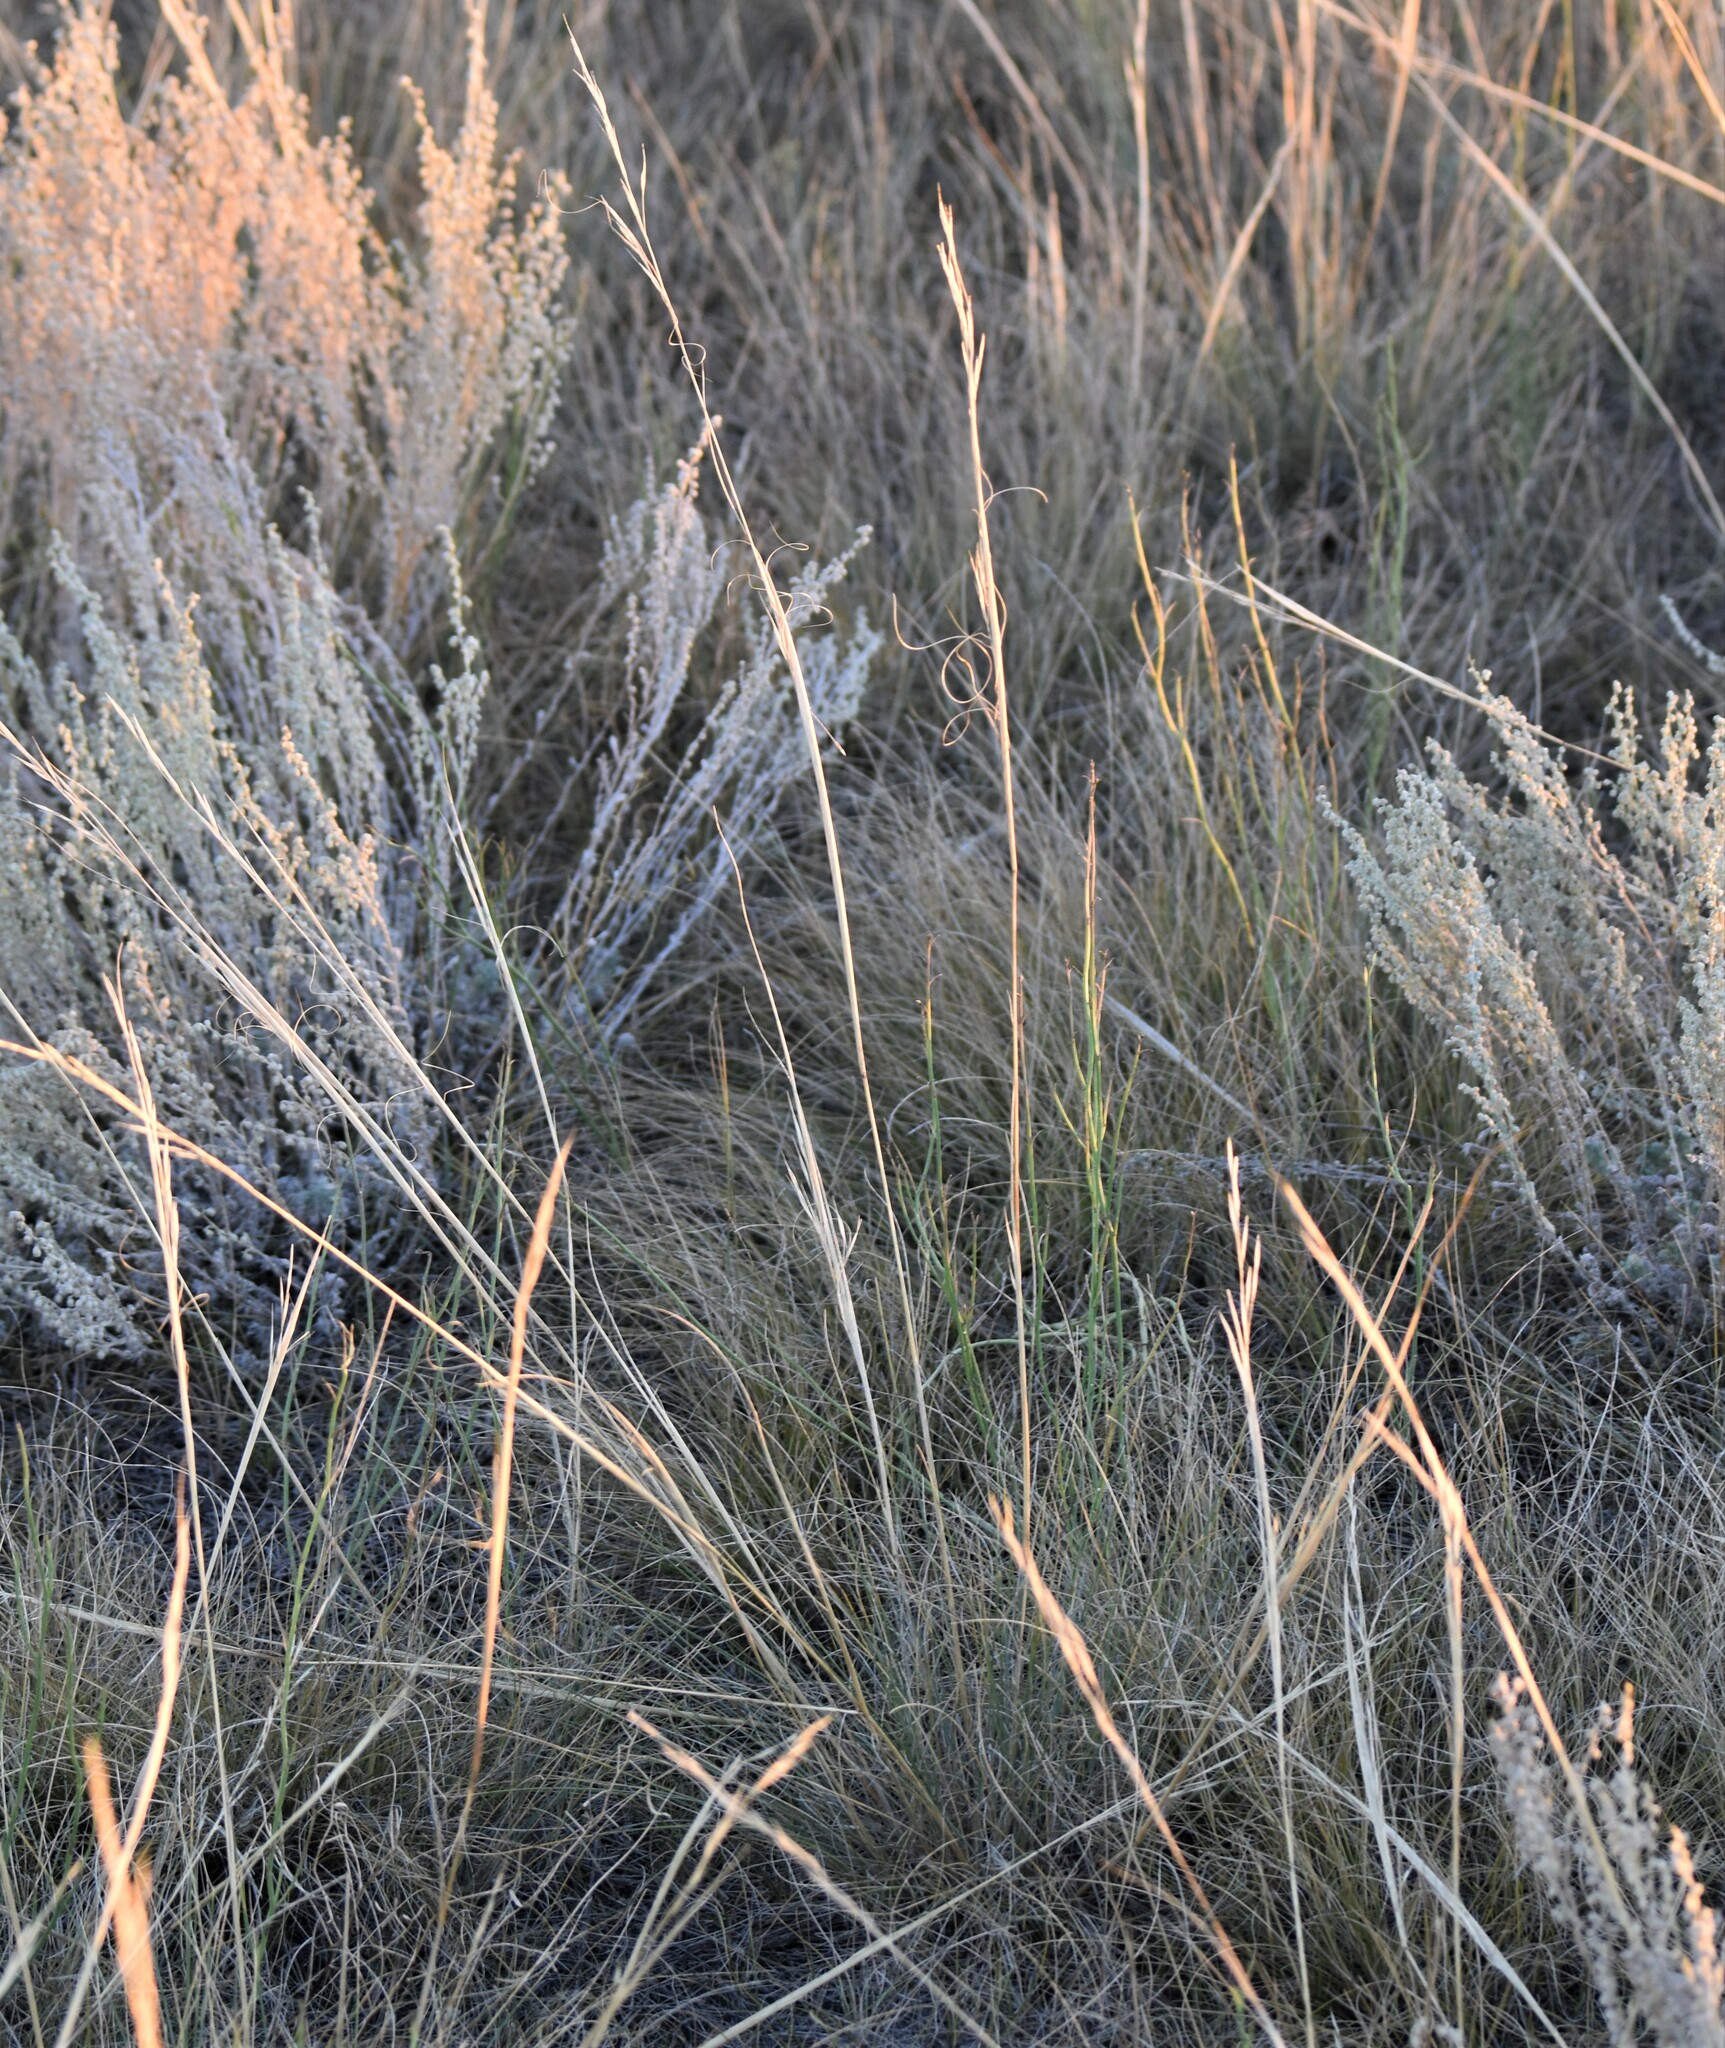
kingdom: Plantae
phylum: Tracheophyta
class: Liliopsida
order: Poales
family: Poaceae
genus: Hesperostipa
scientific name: Hesperostipa comata
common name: Needle-and-thread grass
